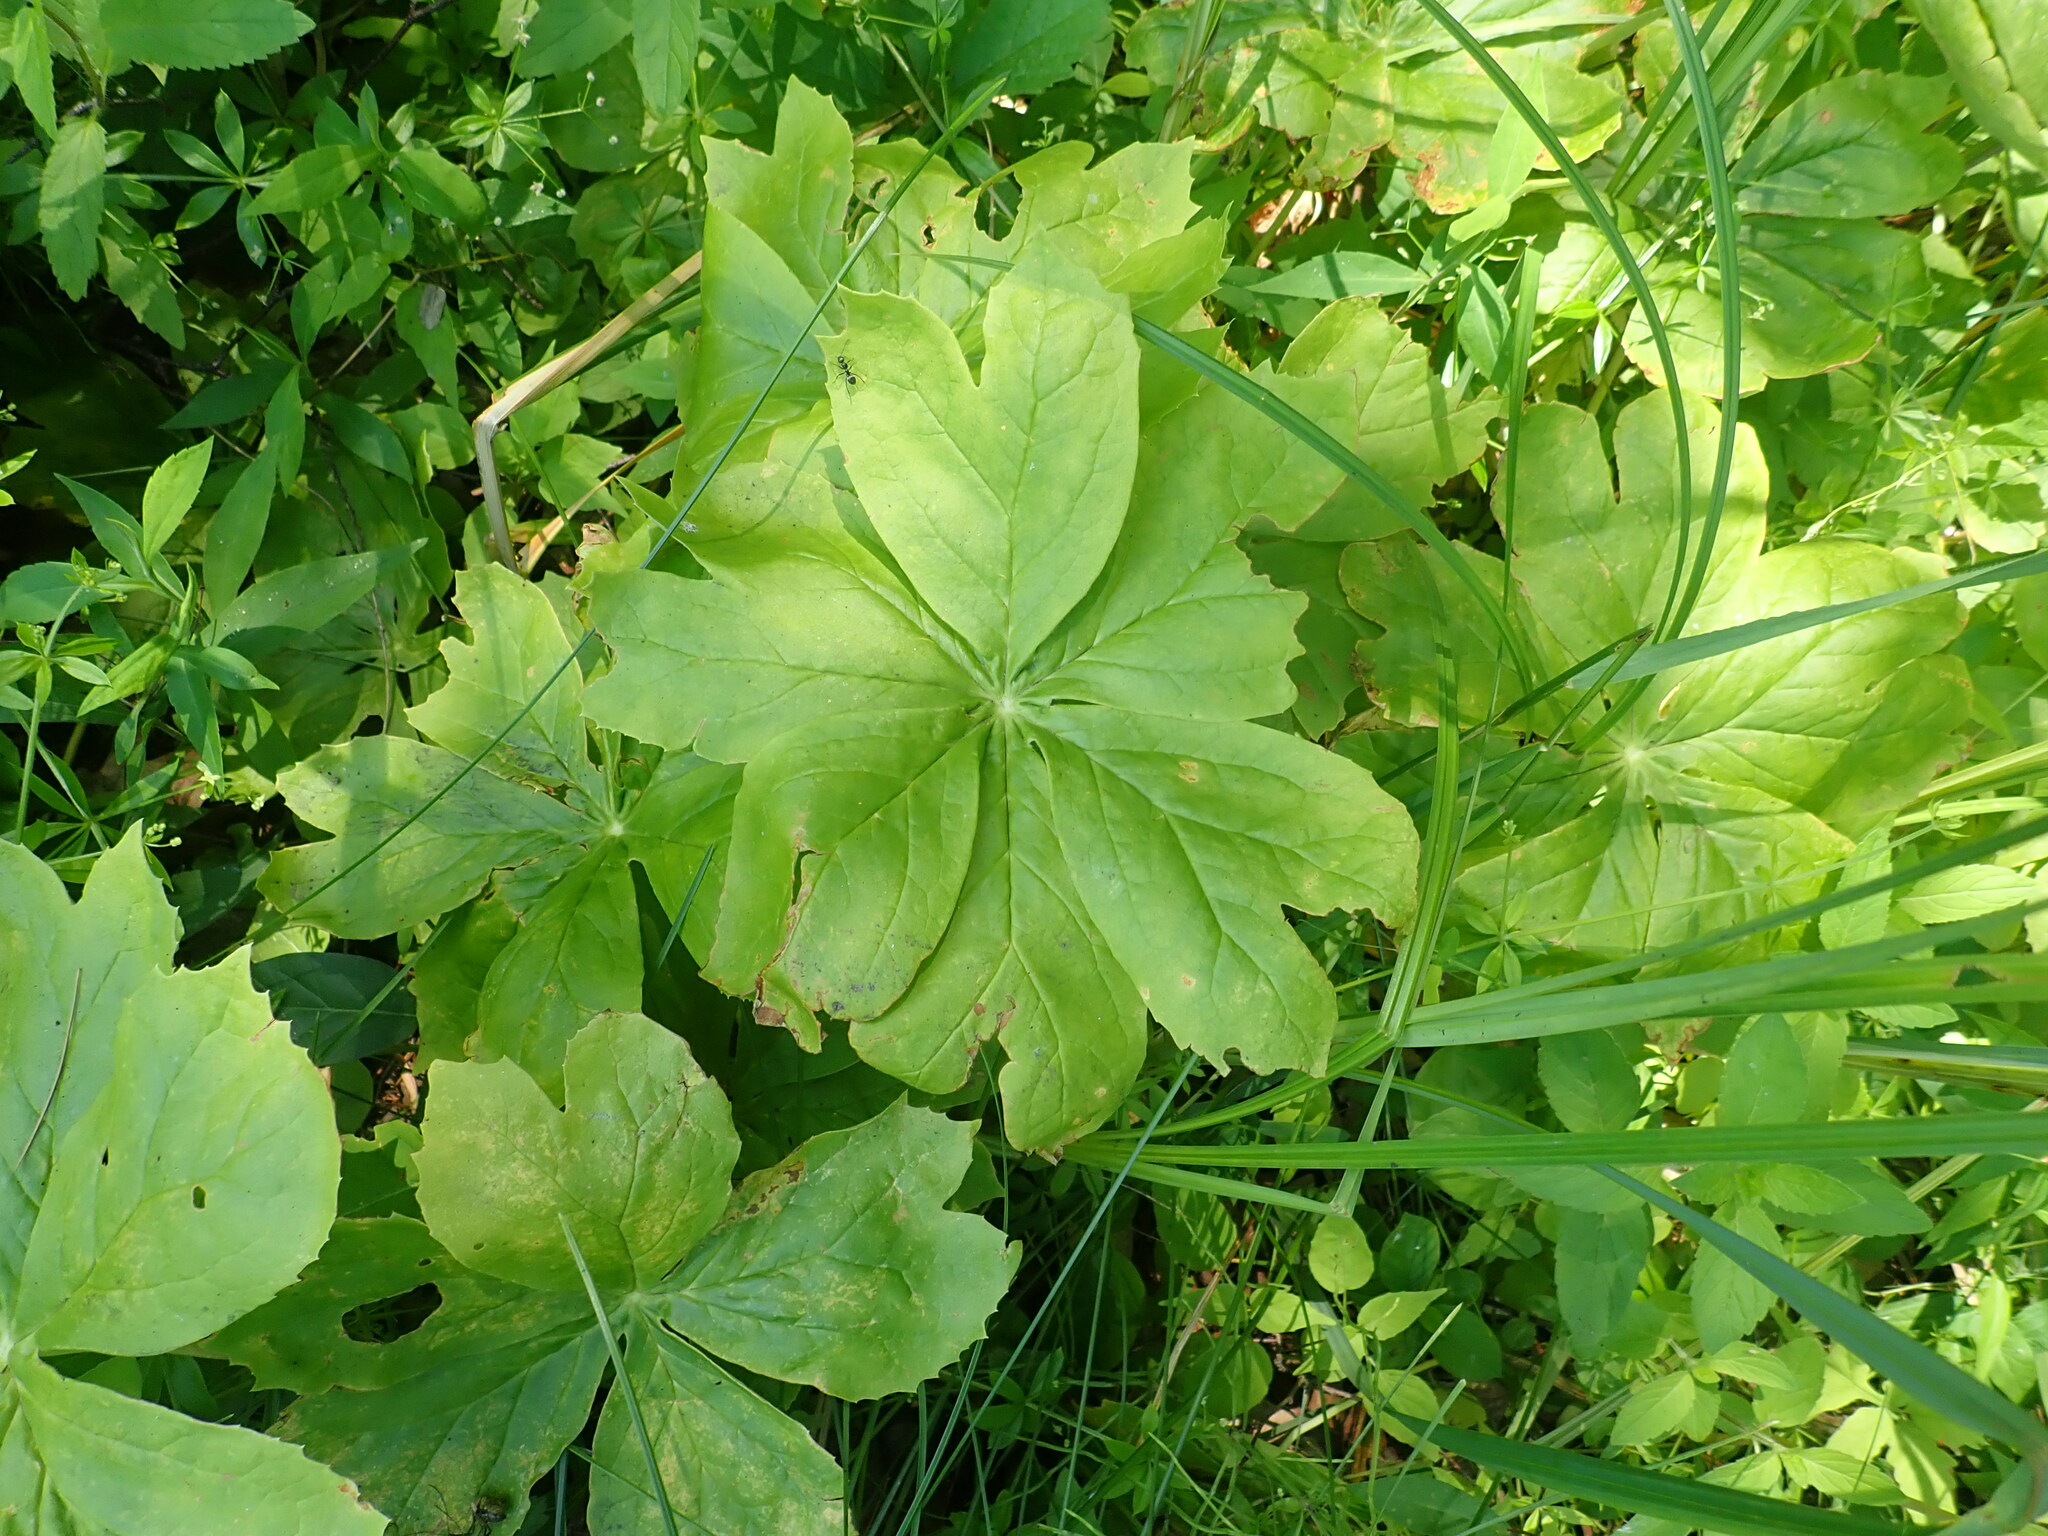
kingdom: Plantae
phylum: Tracheophyta
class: Magnoliopsida
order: Ranunculales
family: Berberidaceae
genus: Podophyllum
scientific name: Podophyllum peltatum
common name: Wild mandrake
